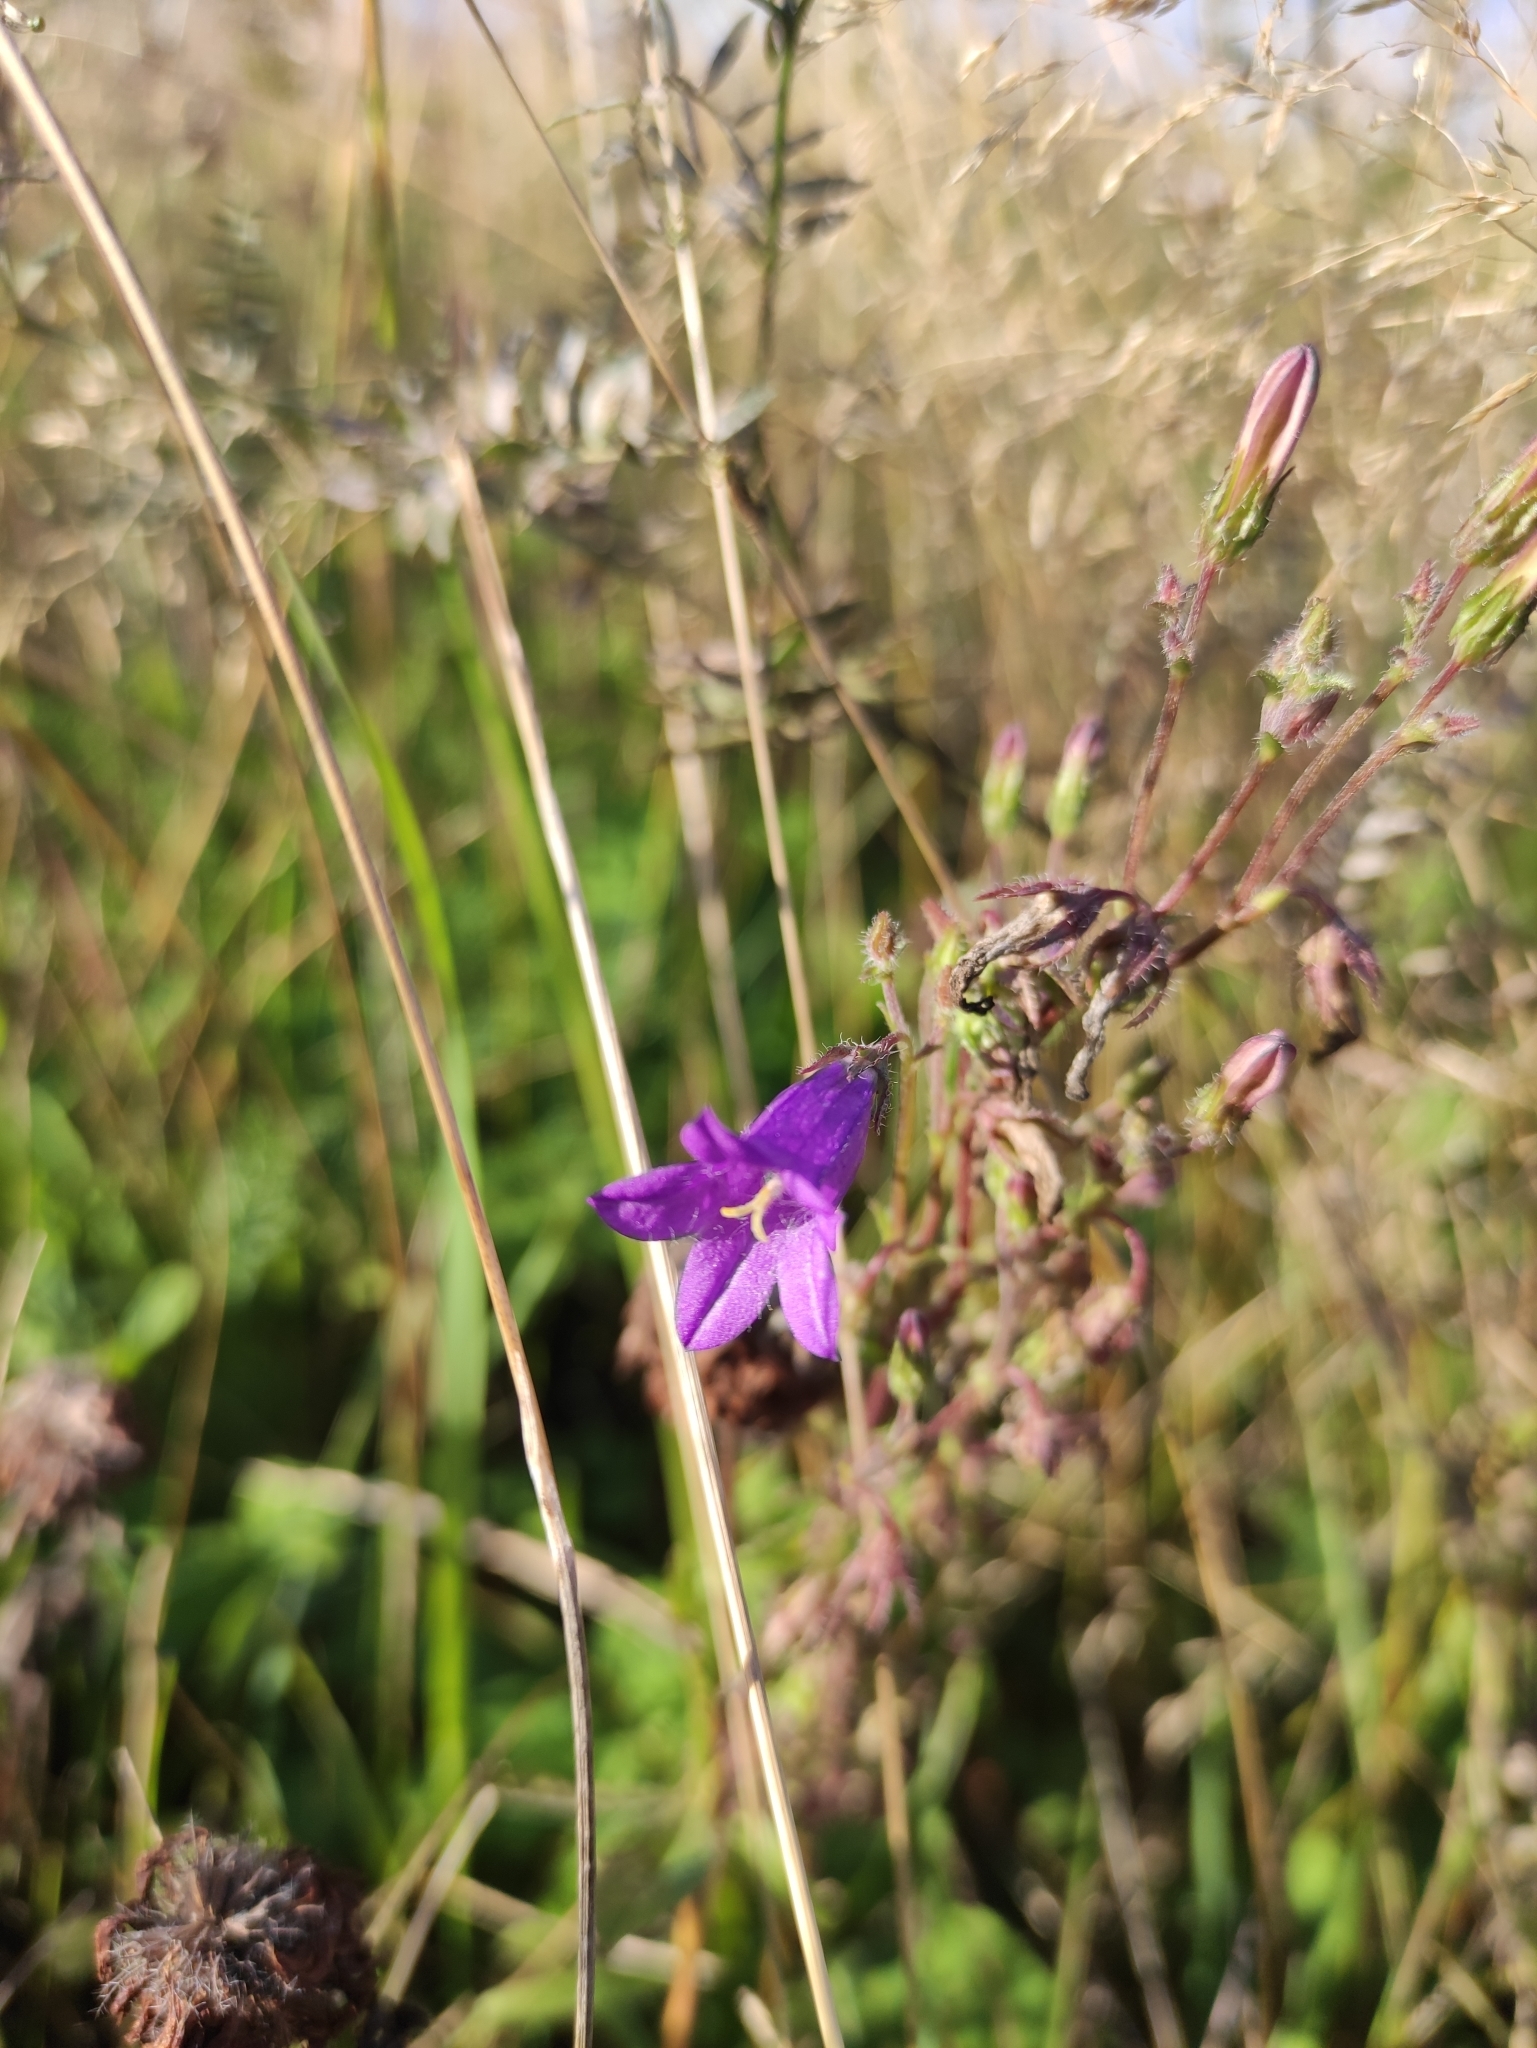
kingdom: Plantae
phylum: Tracheophyta
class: Magnoliopsida
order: Asterales
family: Campanulaceae
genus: Campanula
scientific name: Campanula sibirica
